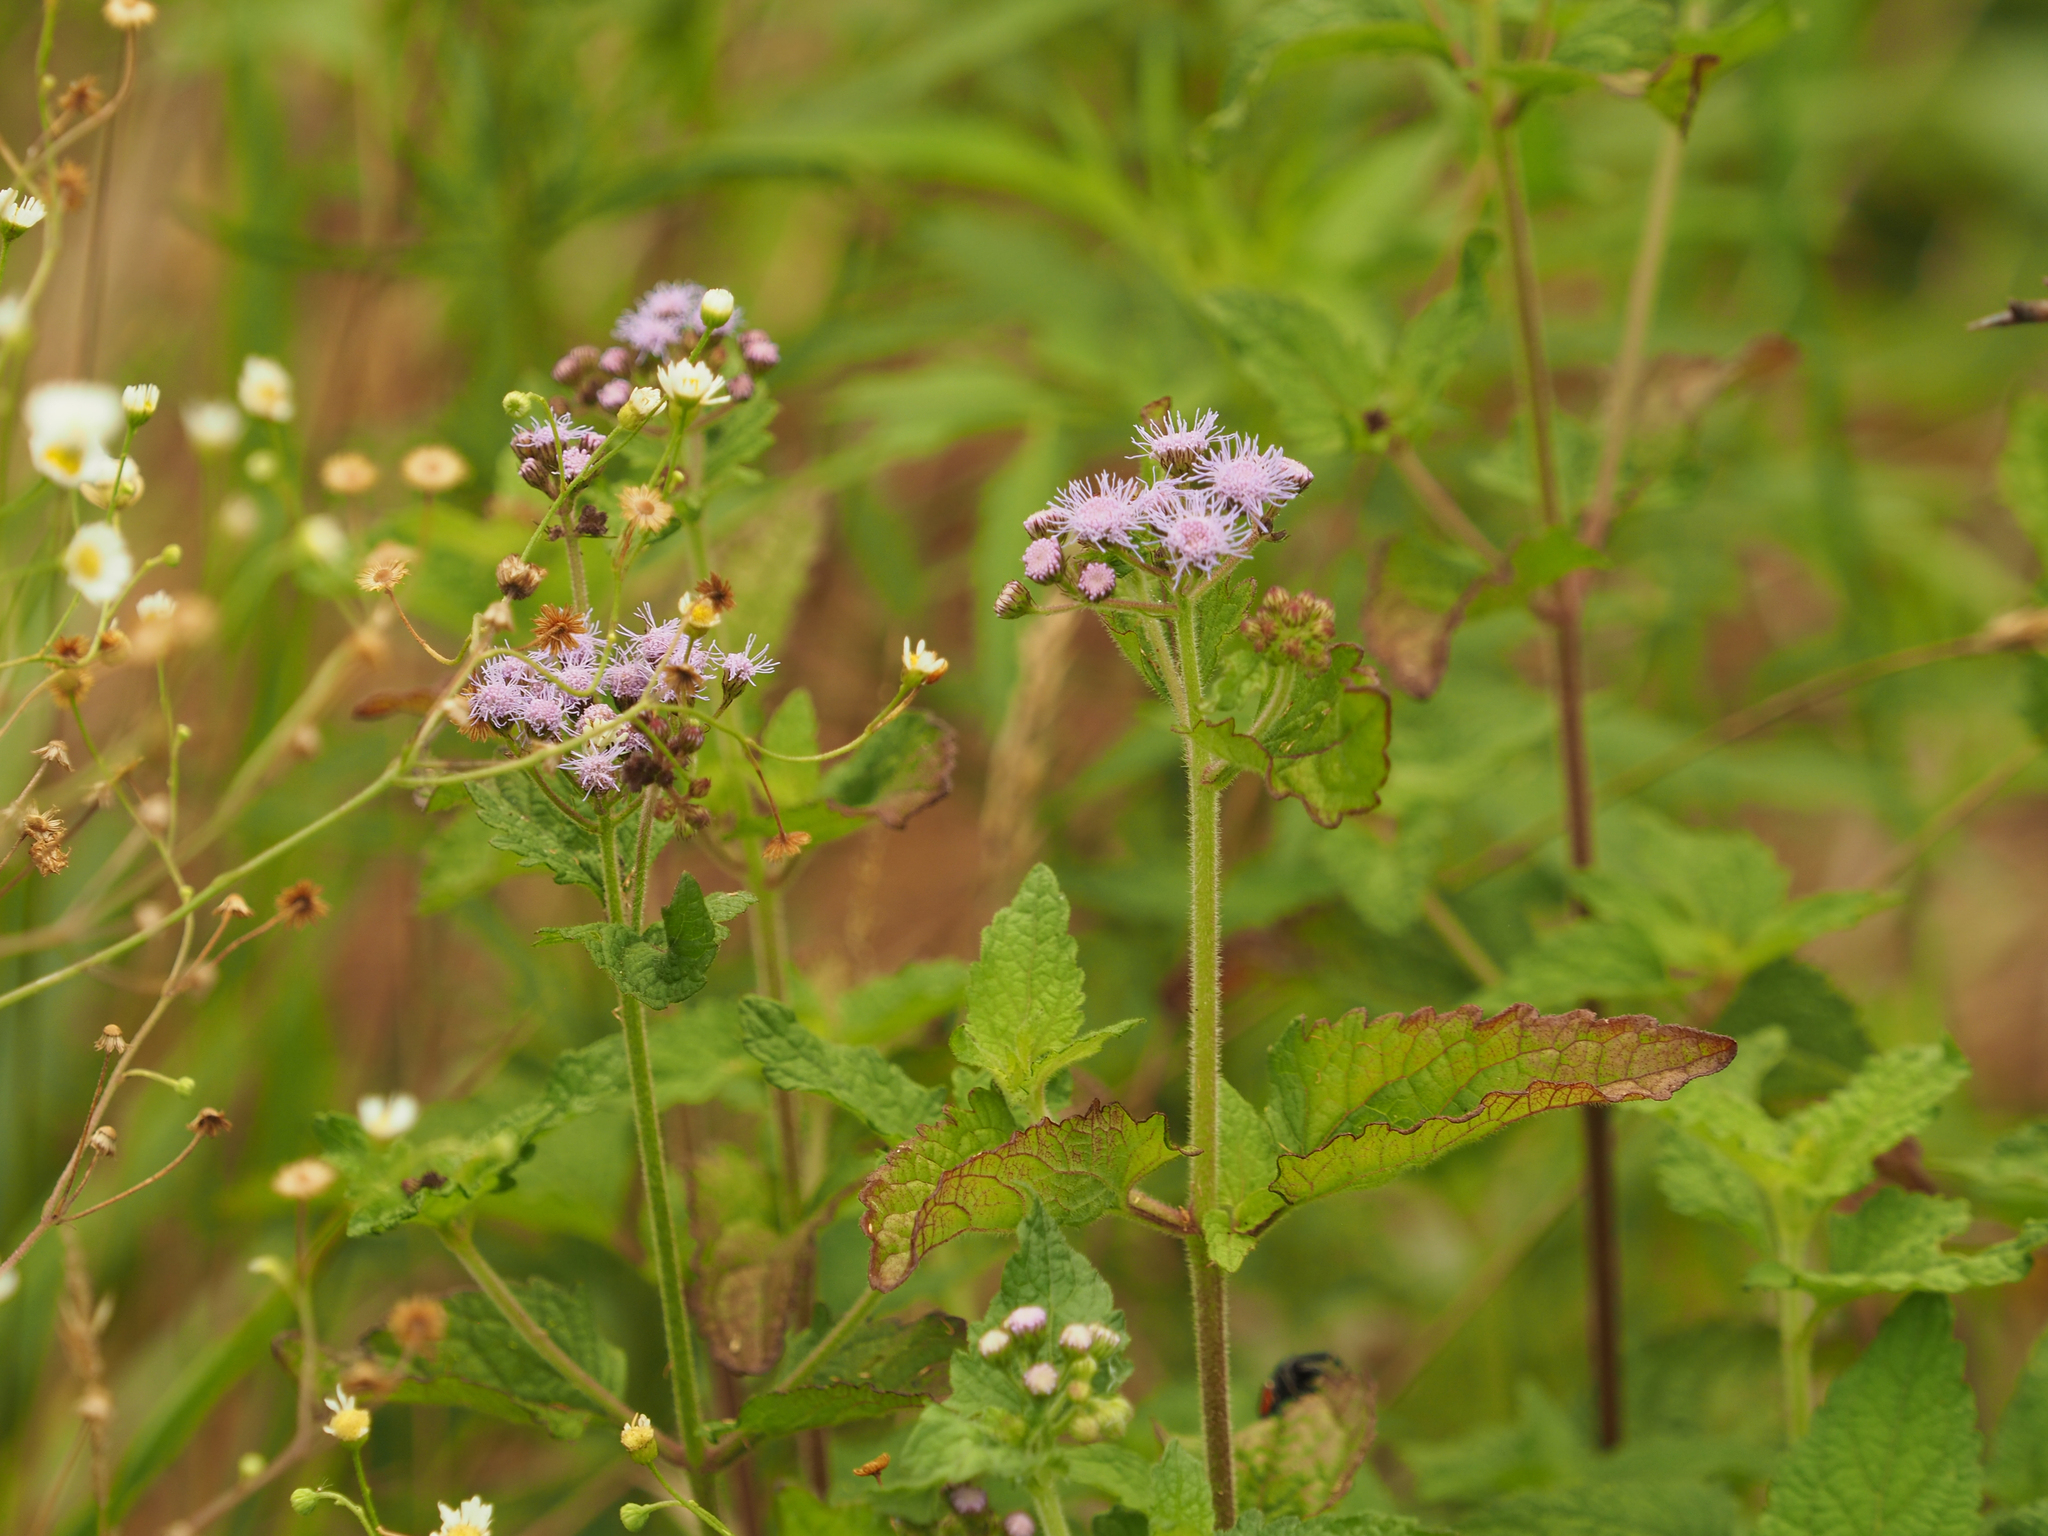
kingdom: Plantae
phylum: Tracheophyta
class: Magnoliopsida
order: Asterales
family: Asteraceae
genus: Conoclinium
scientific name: Conoclinium coelestinum
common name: Blue mistflower
